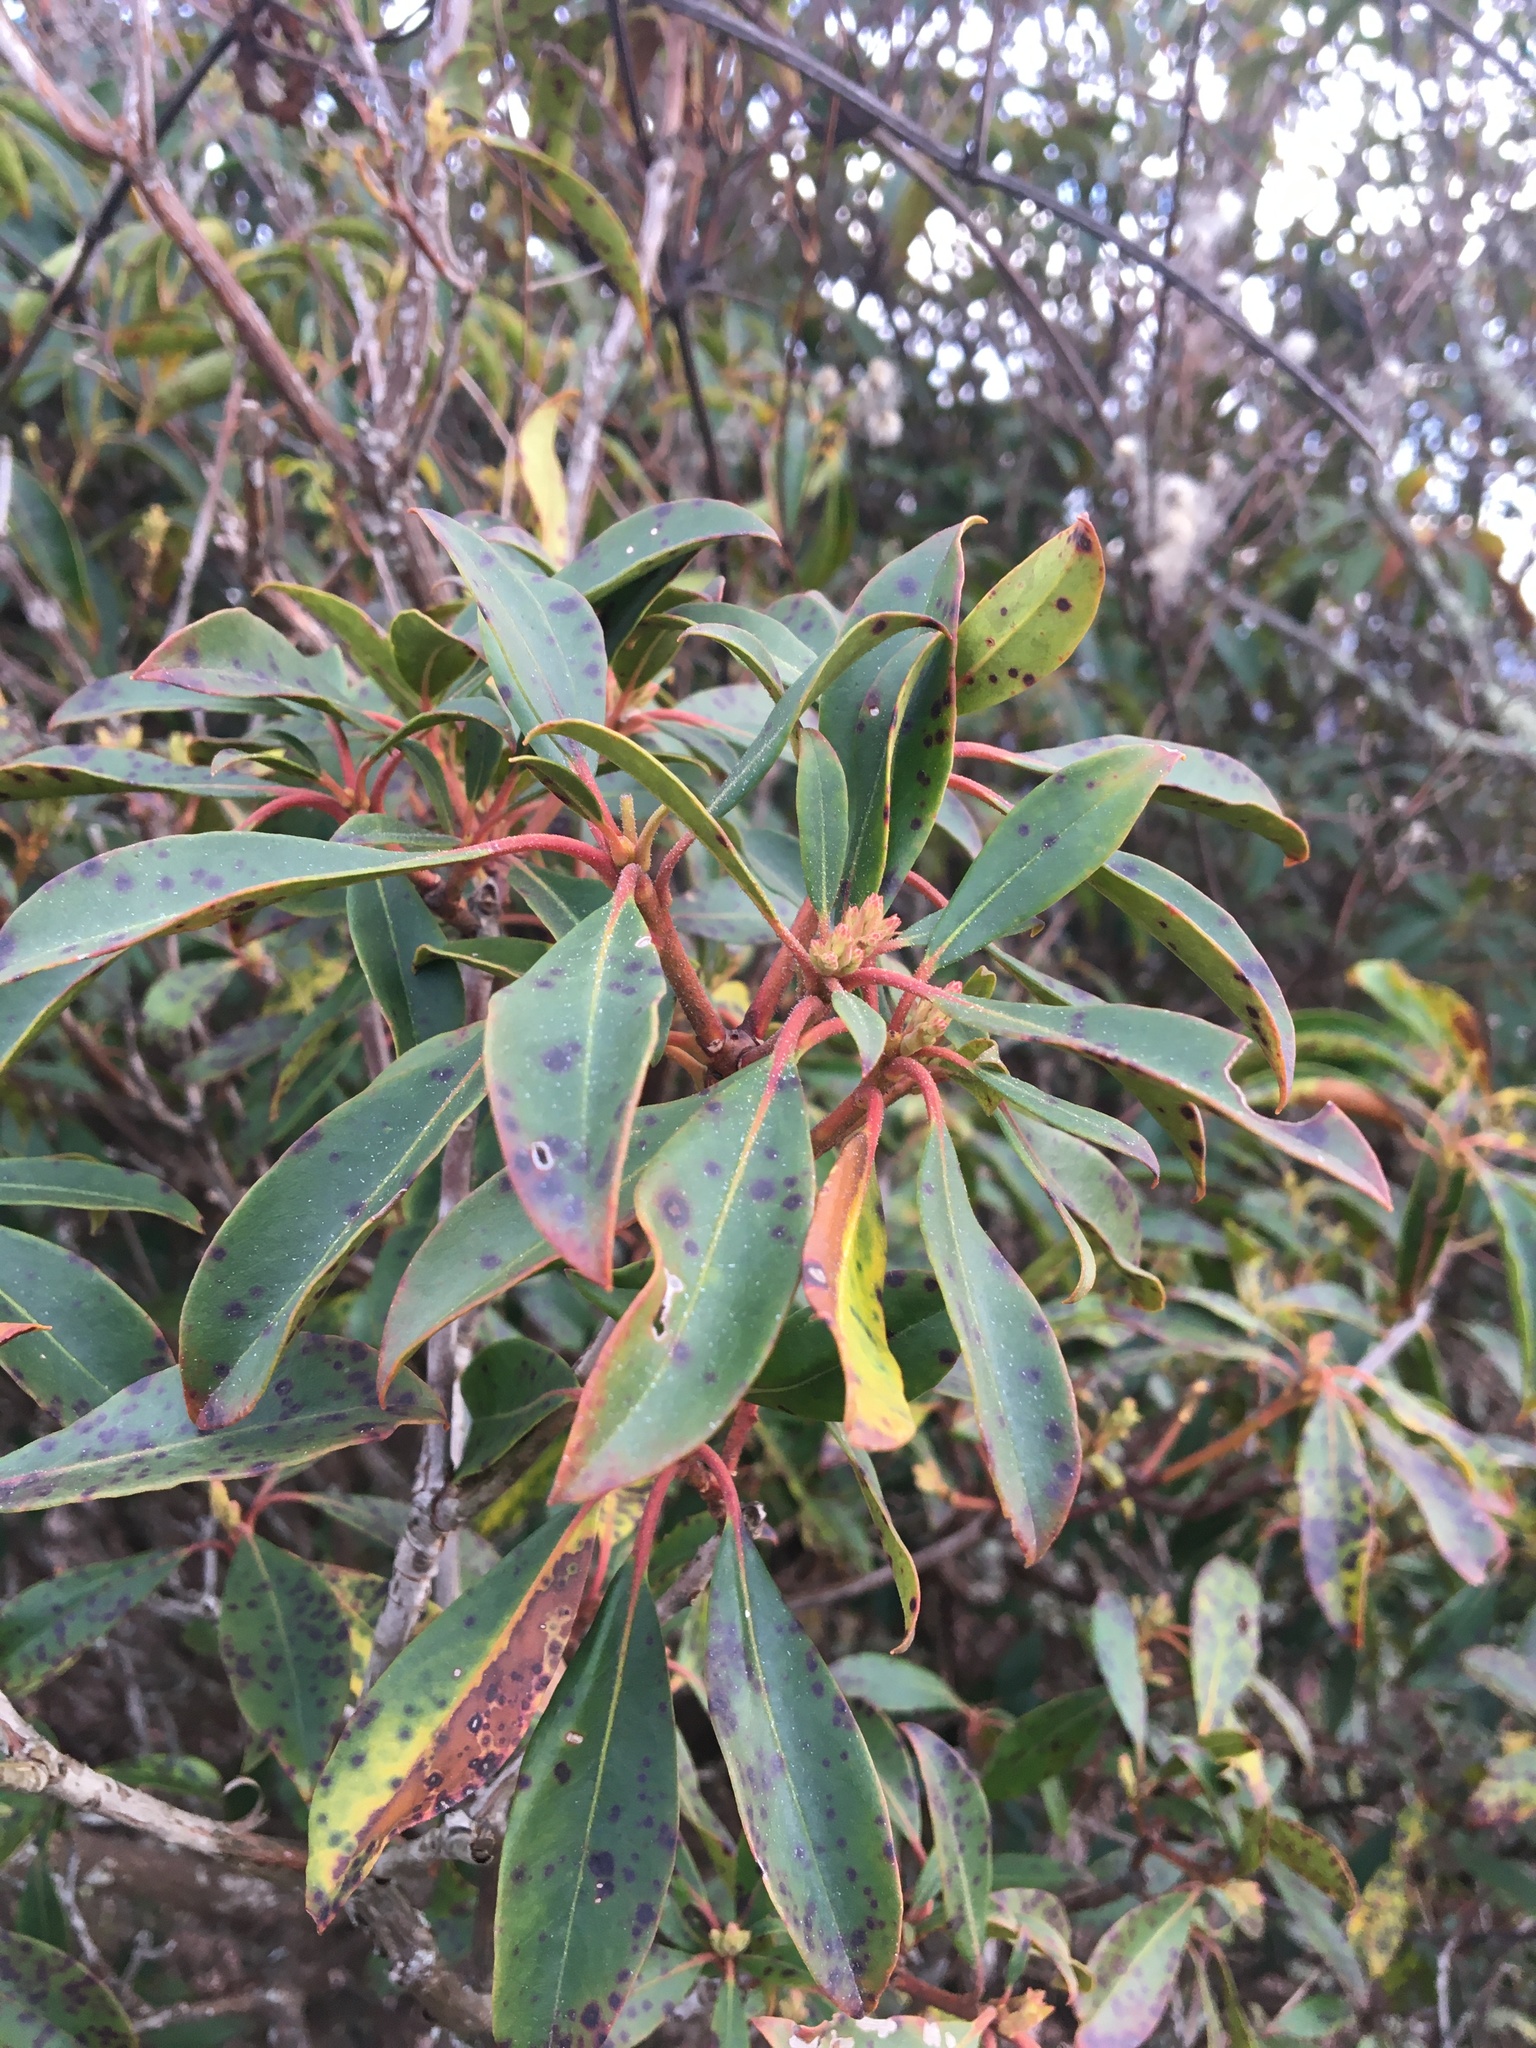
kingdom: Plantae
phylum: Tracheophyta
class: Magnoliopsida
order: Ericales
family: Ericaceae
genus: Kalmia
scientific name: Kalmia latifolia
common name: Mountain-laurel
